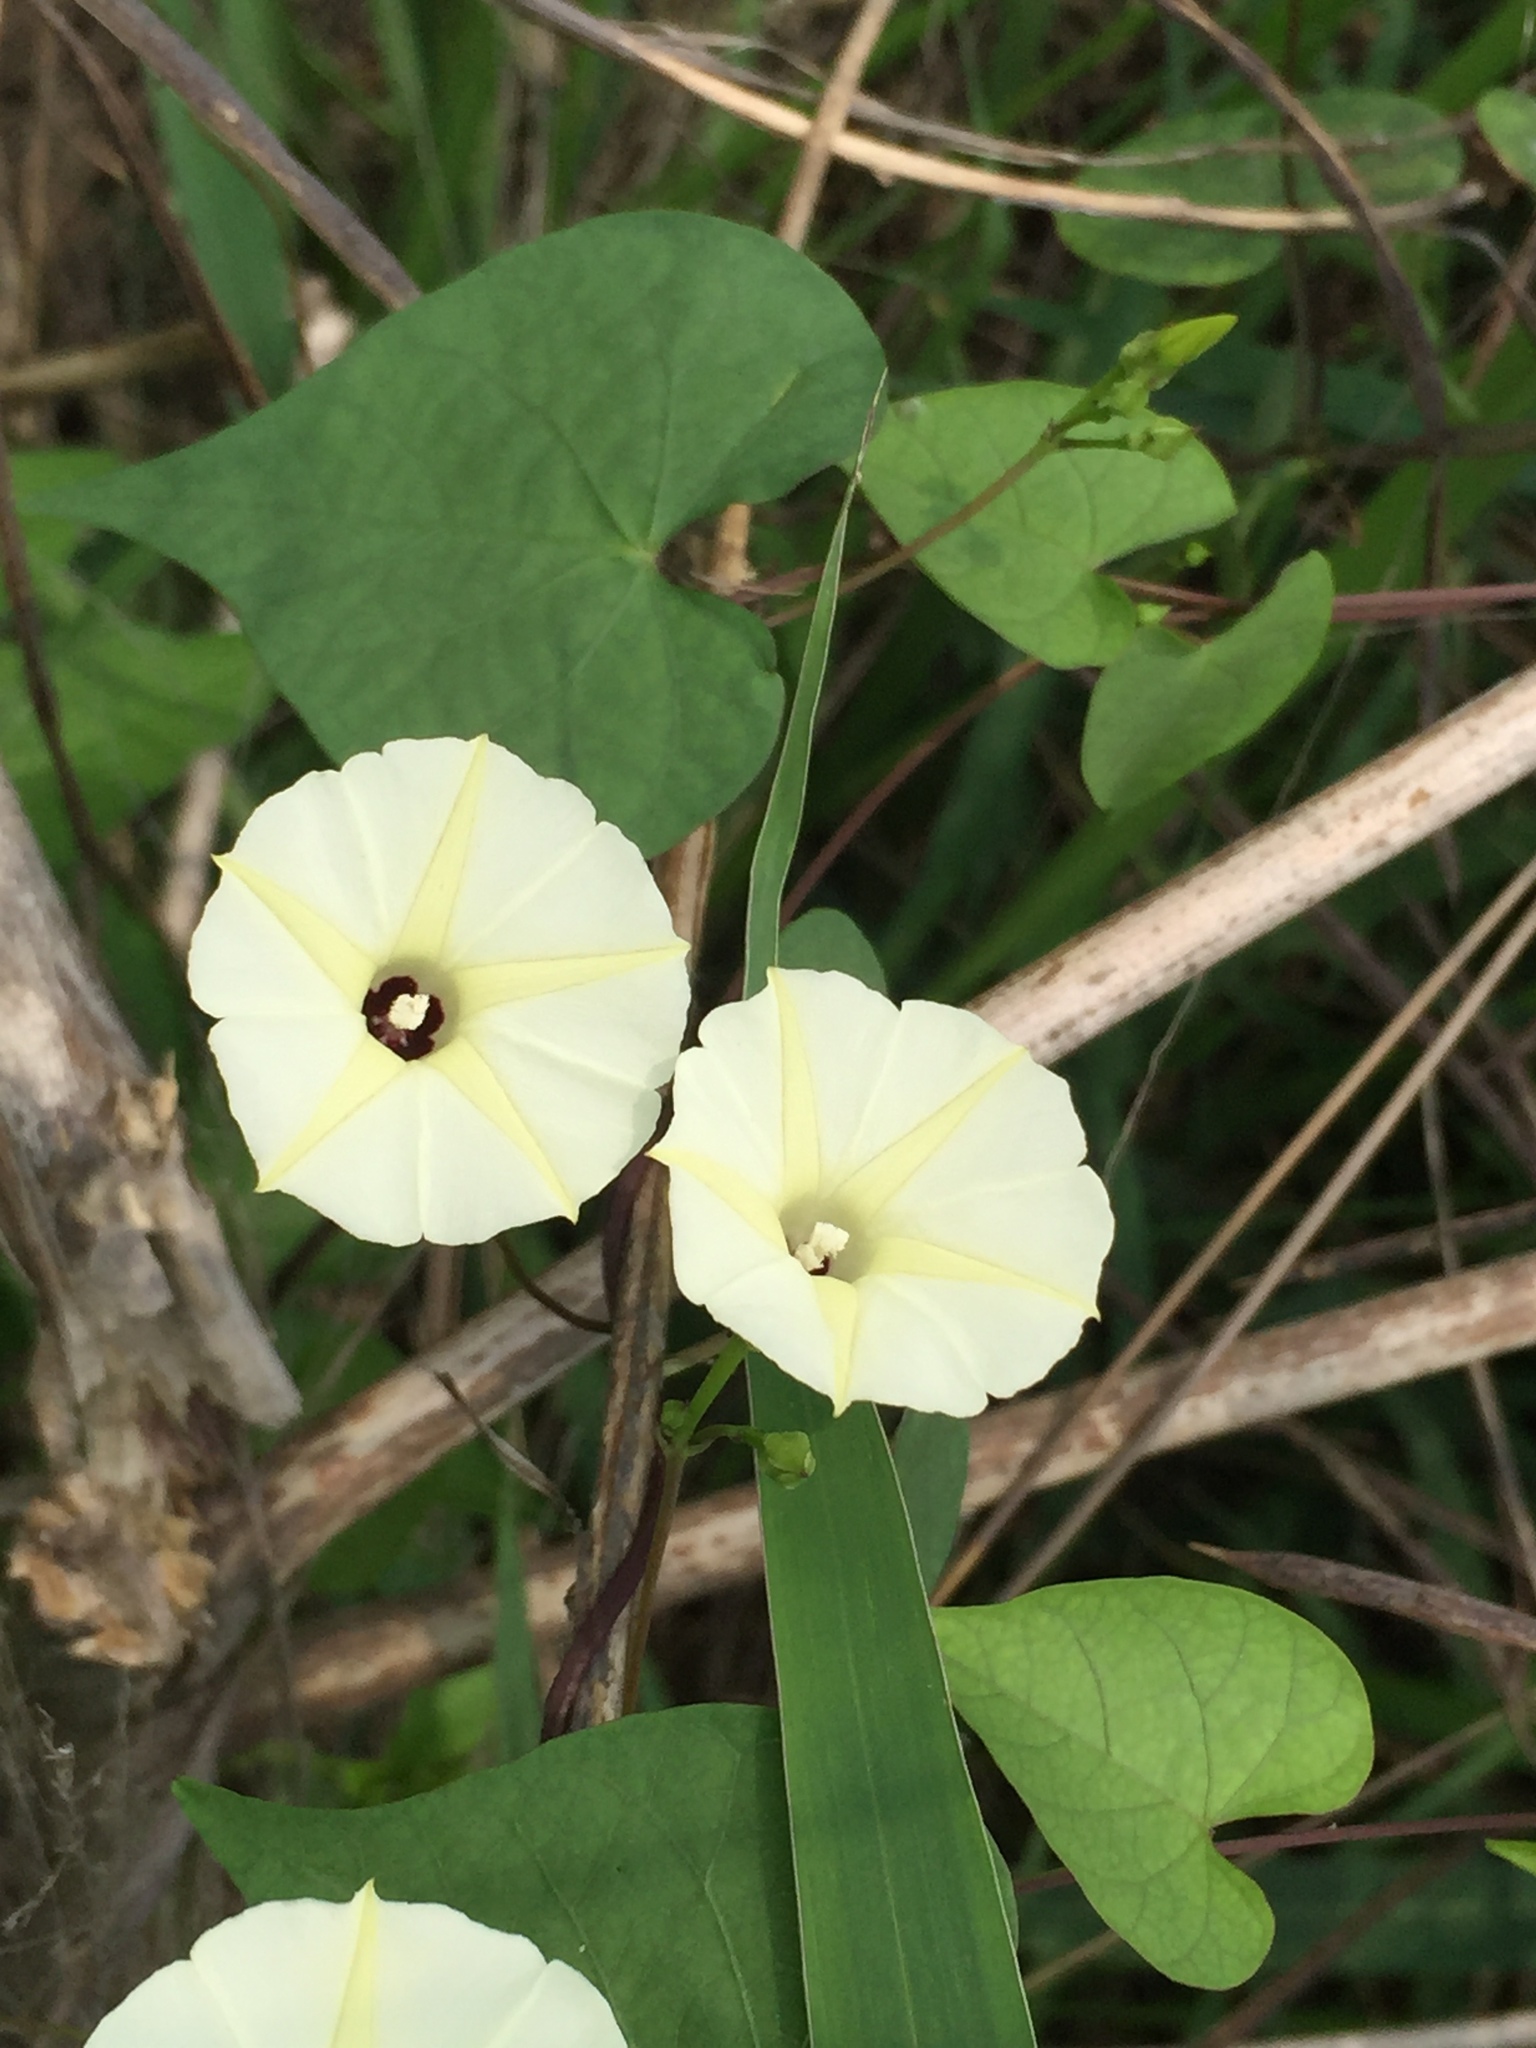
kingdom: Plantae
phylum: Tracheophyta
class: Magnoliopsida
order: Solanales
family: Convolvulaceae
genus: Ipomoea
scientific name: Ipomoea obscura
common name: Obscure morning-glory
